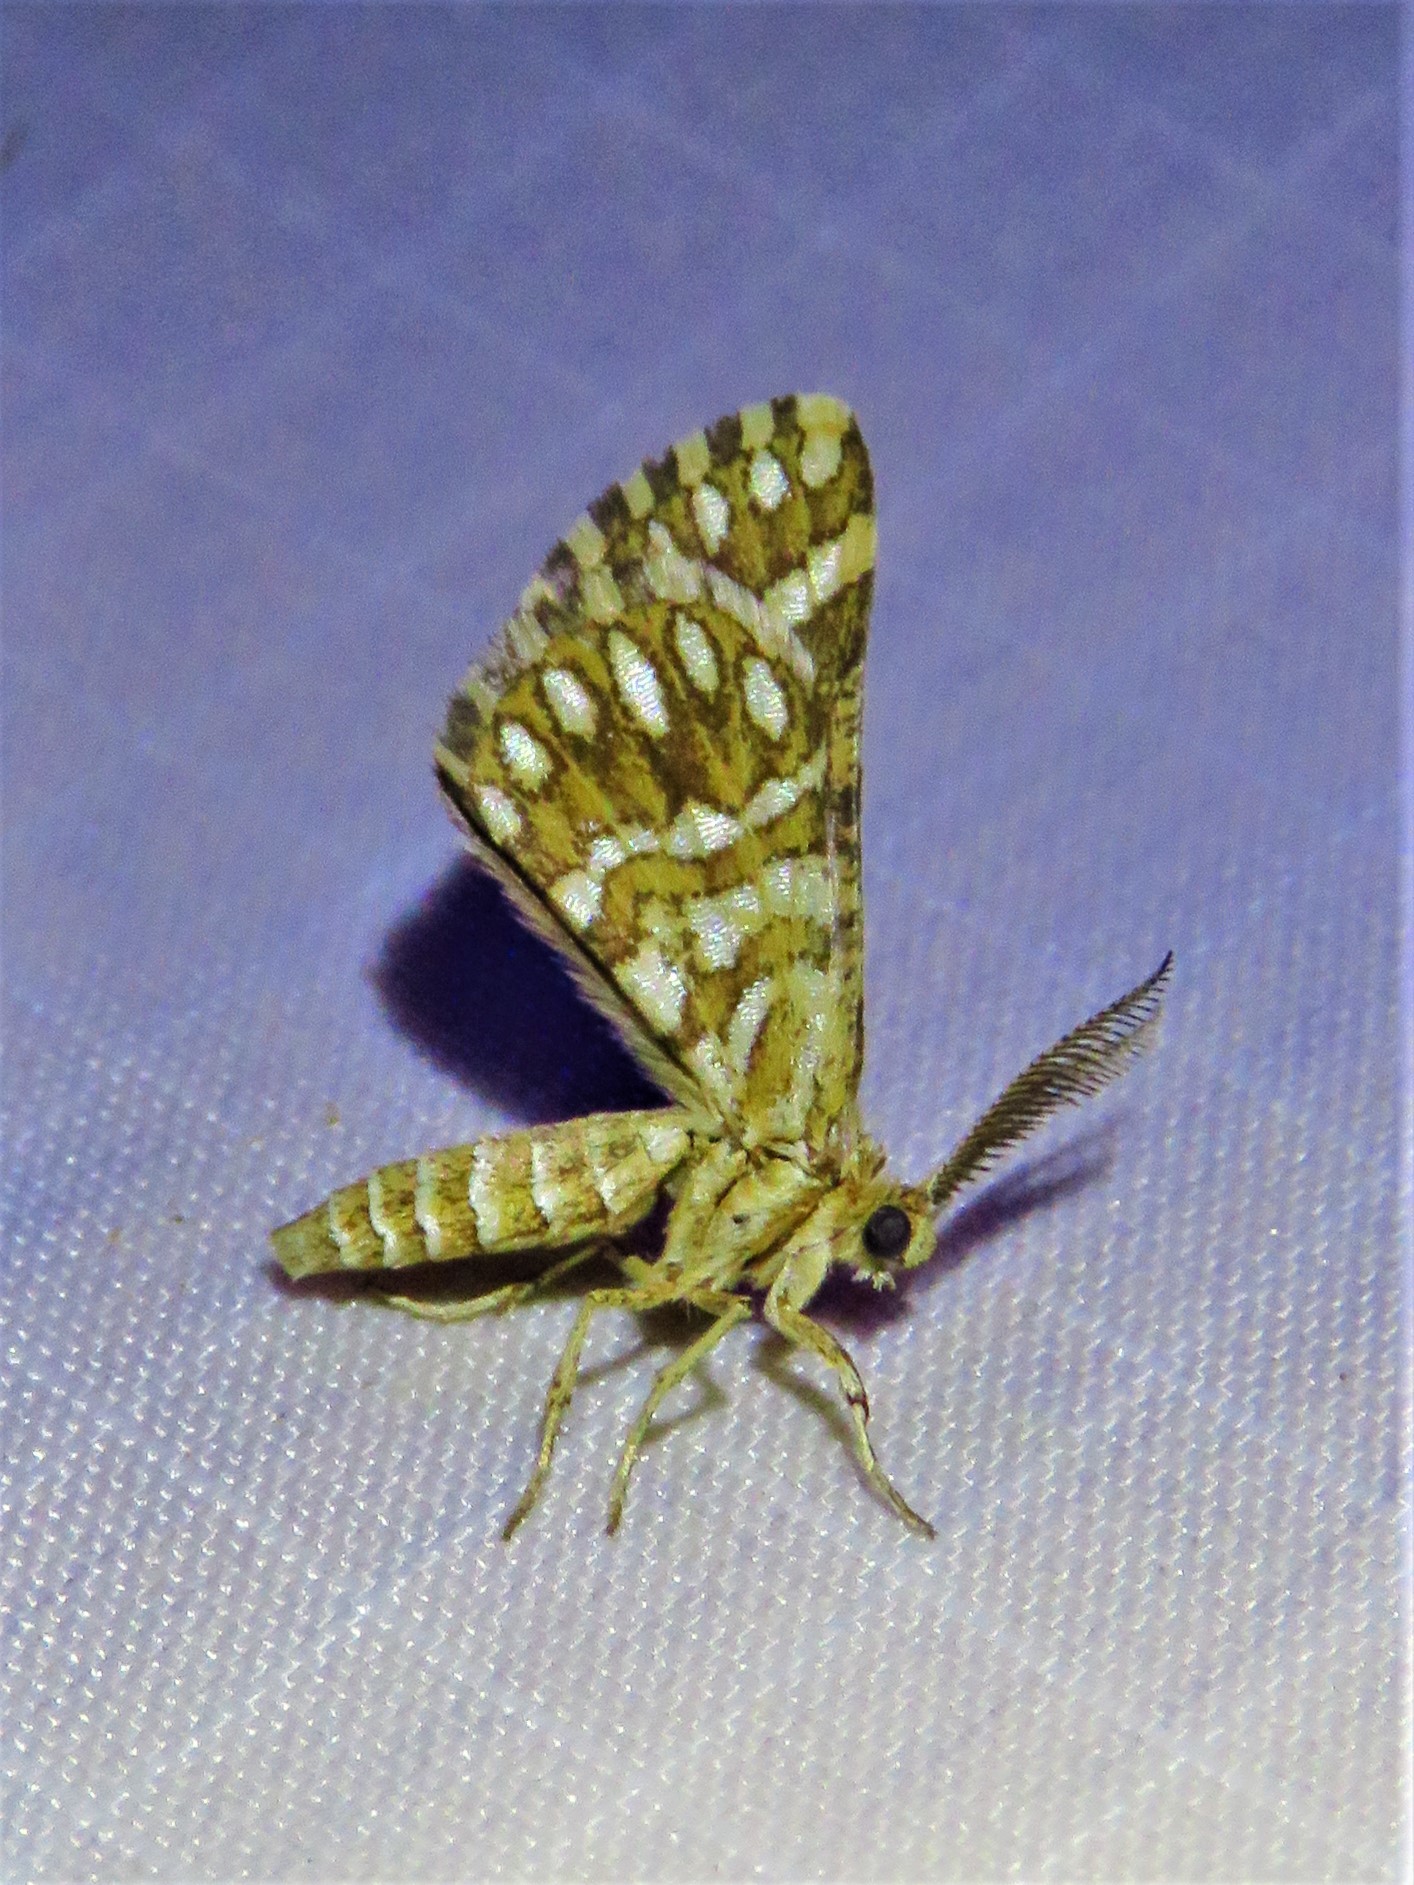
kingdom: Animalia
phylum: Arthropoda
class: Insecta
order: Lepidoptera
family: Geometridae
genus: Narraga
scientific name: Narraga fimetaria
